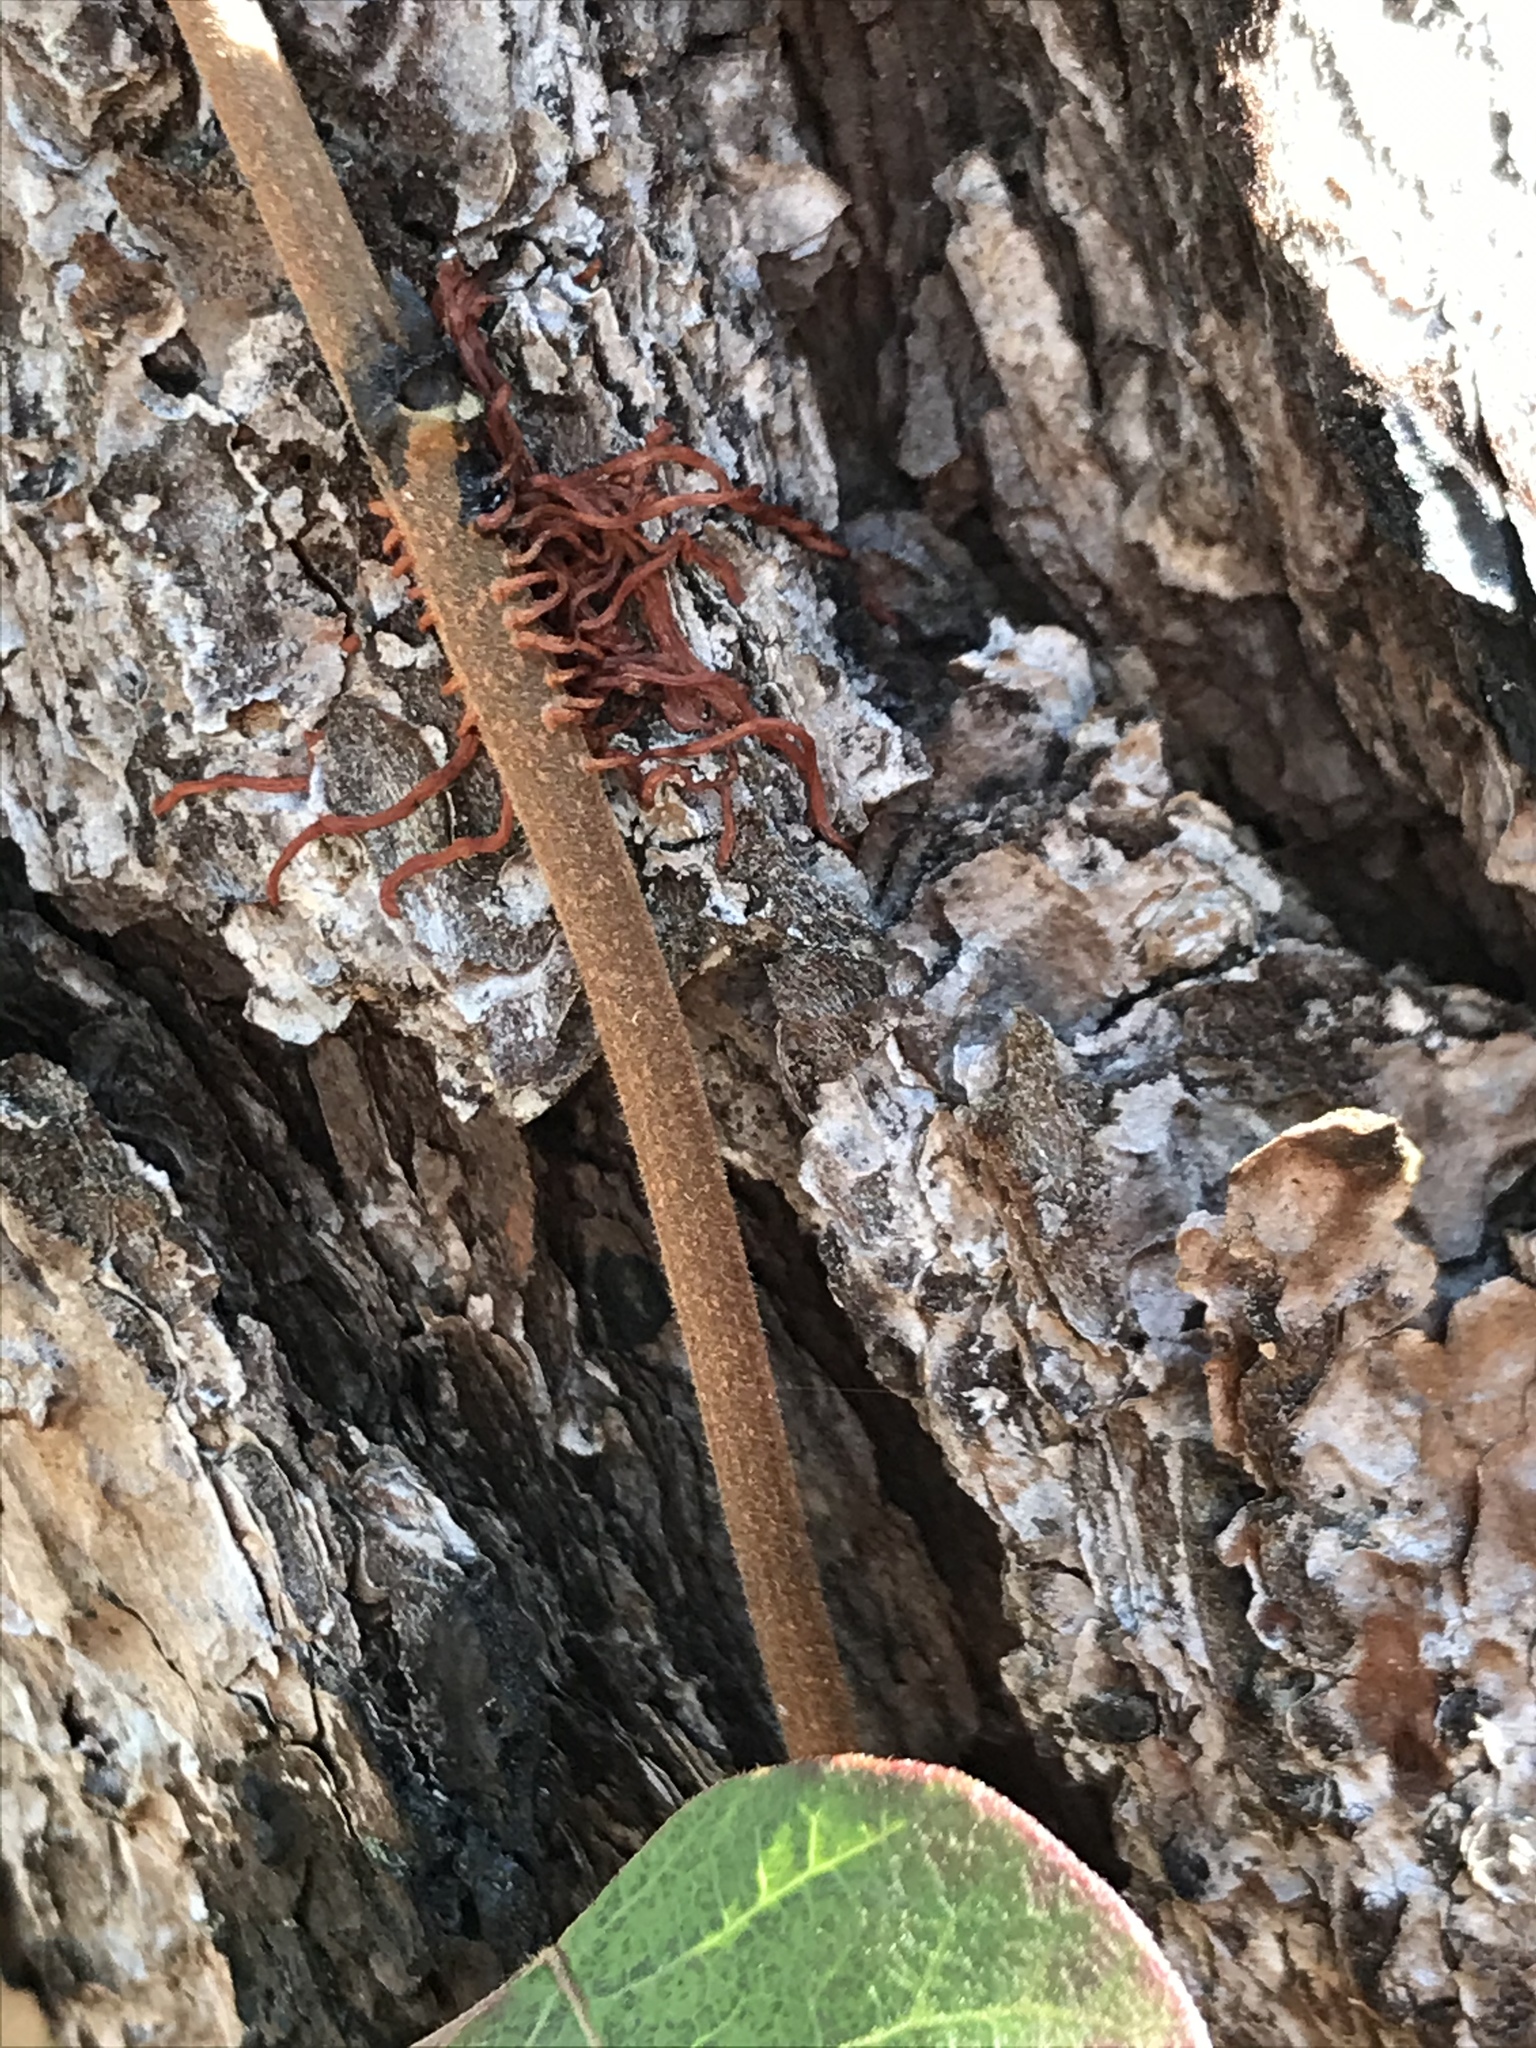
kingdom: Plantae
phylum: Tracheophyta
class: Magnoliopsida
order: Sapindales
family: Anacardiaceae
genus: Toxicodendron
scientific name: Toxicodendron radicans
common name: Poison ivy
